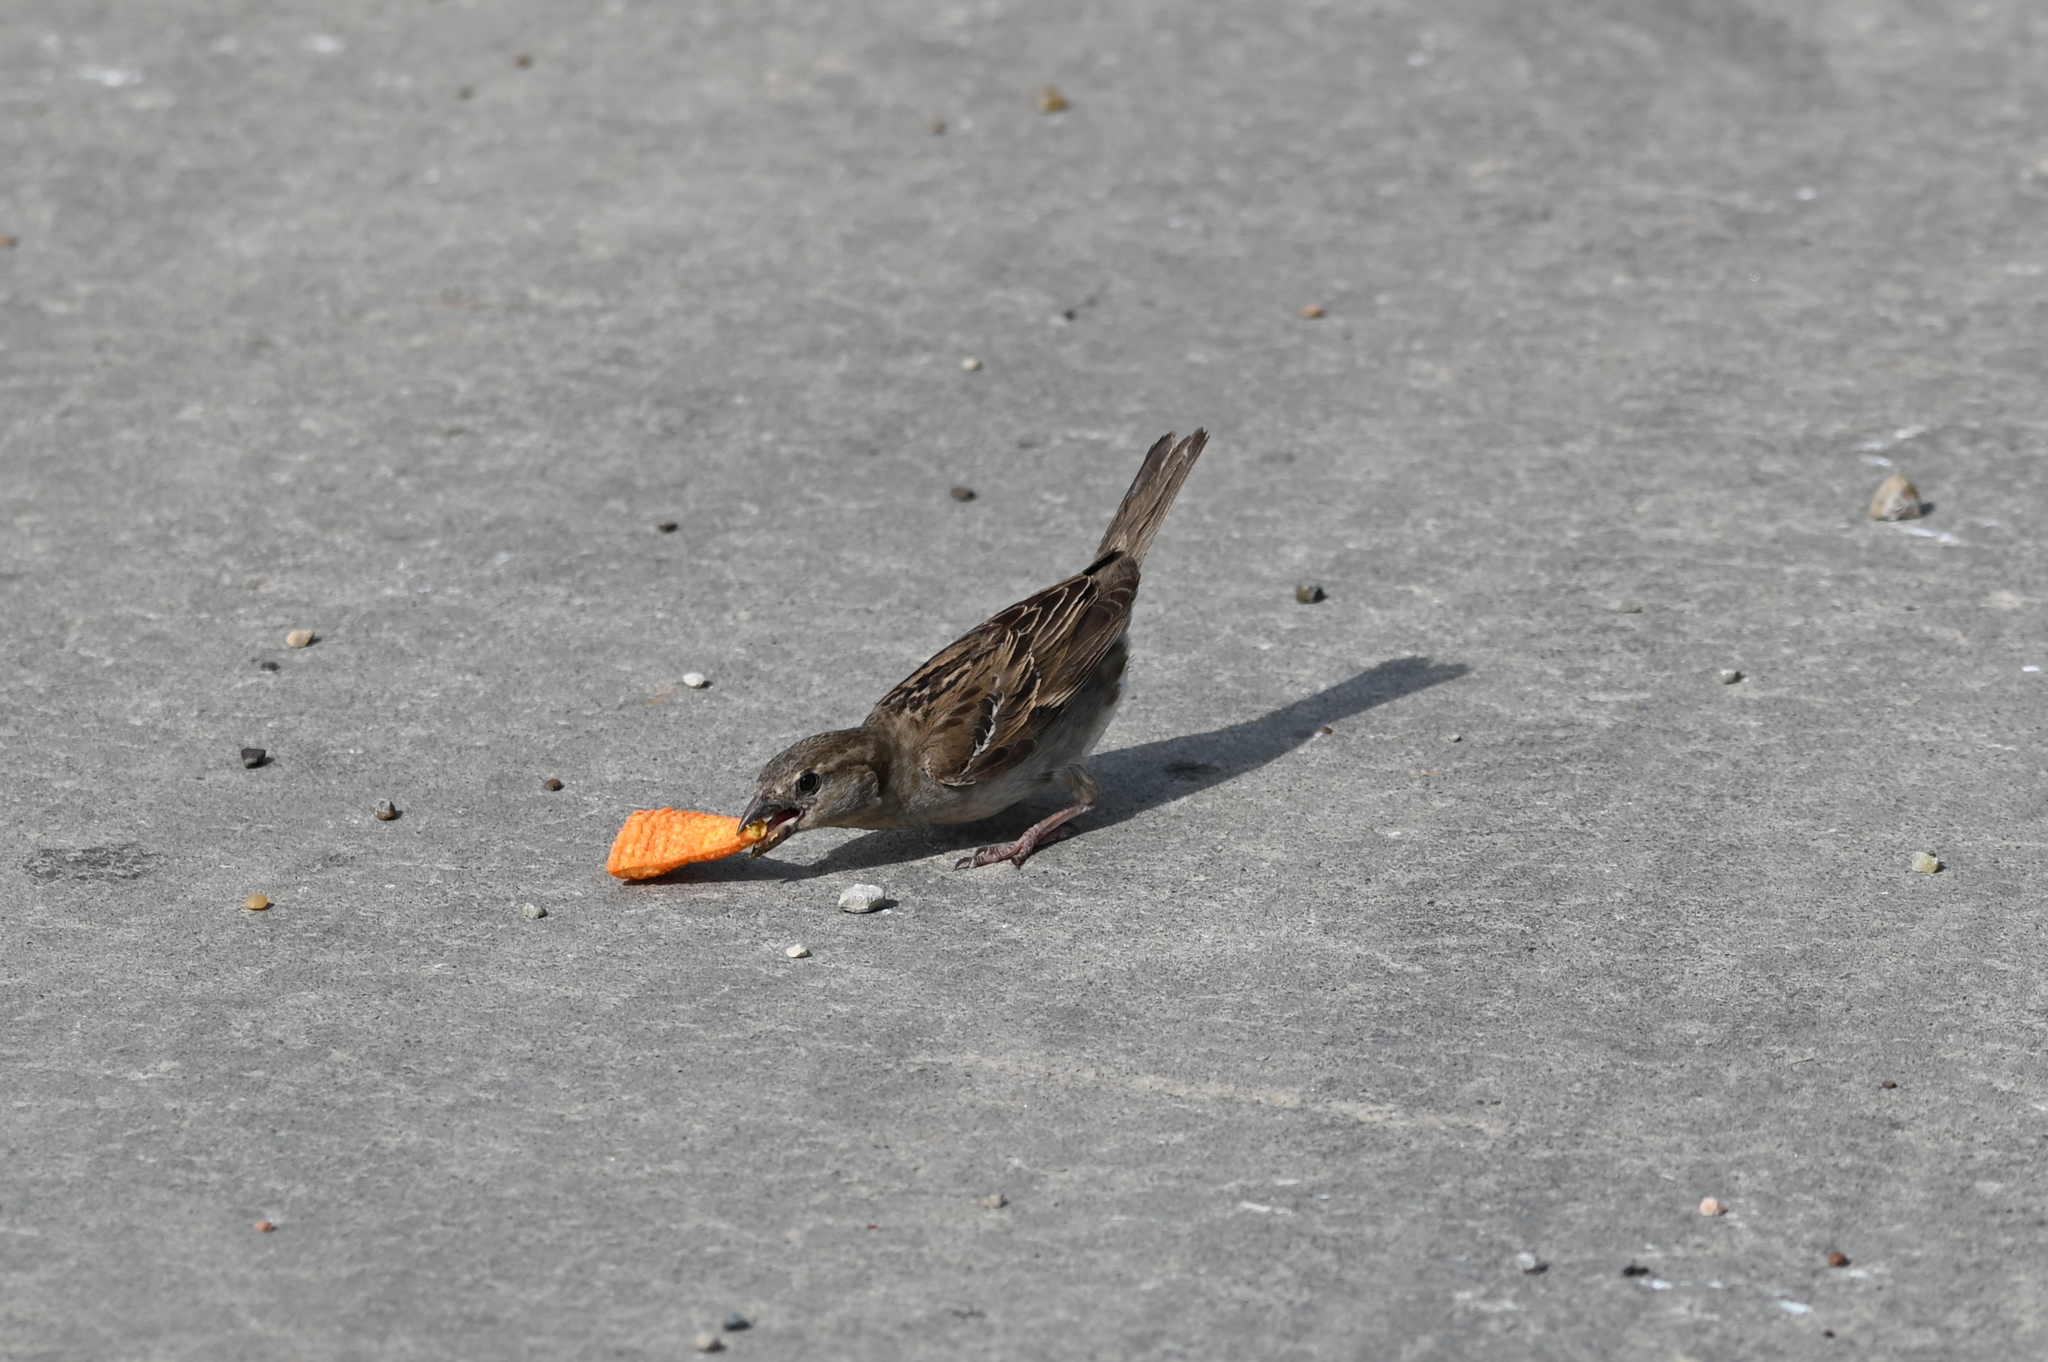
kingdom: Animalia
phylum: Chordata
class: Aves
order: Passeriformes
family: Passeridae
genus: Passer
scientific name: Passer domesticus
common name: House sparrow
